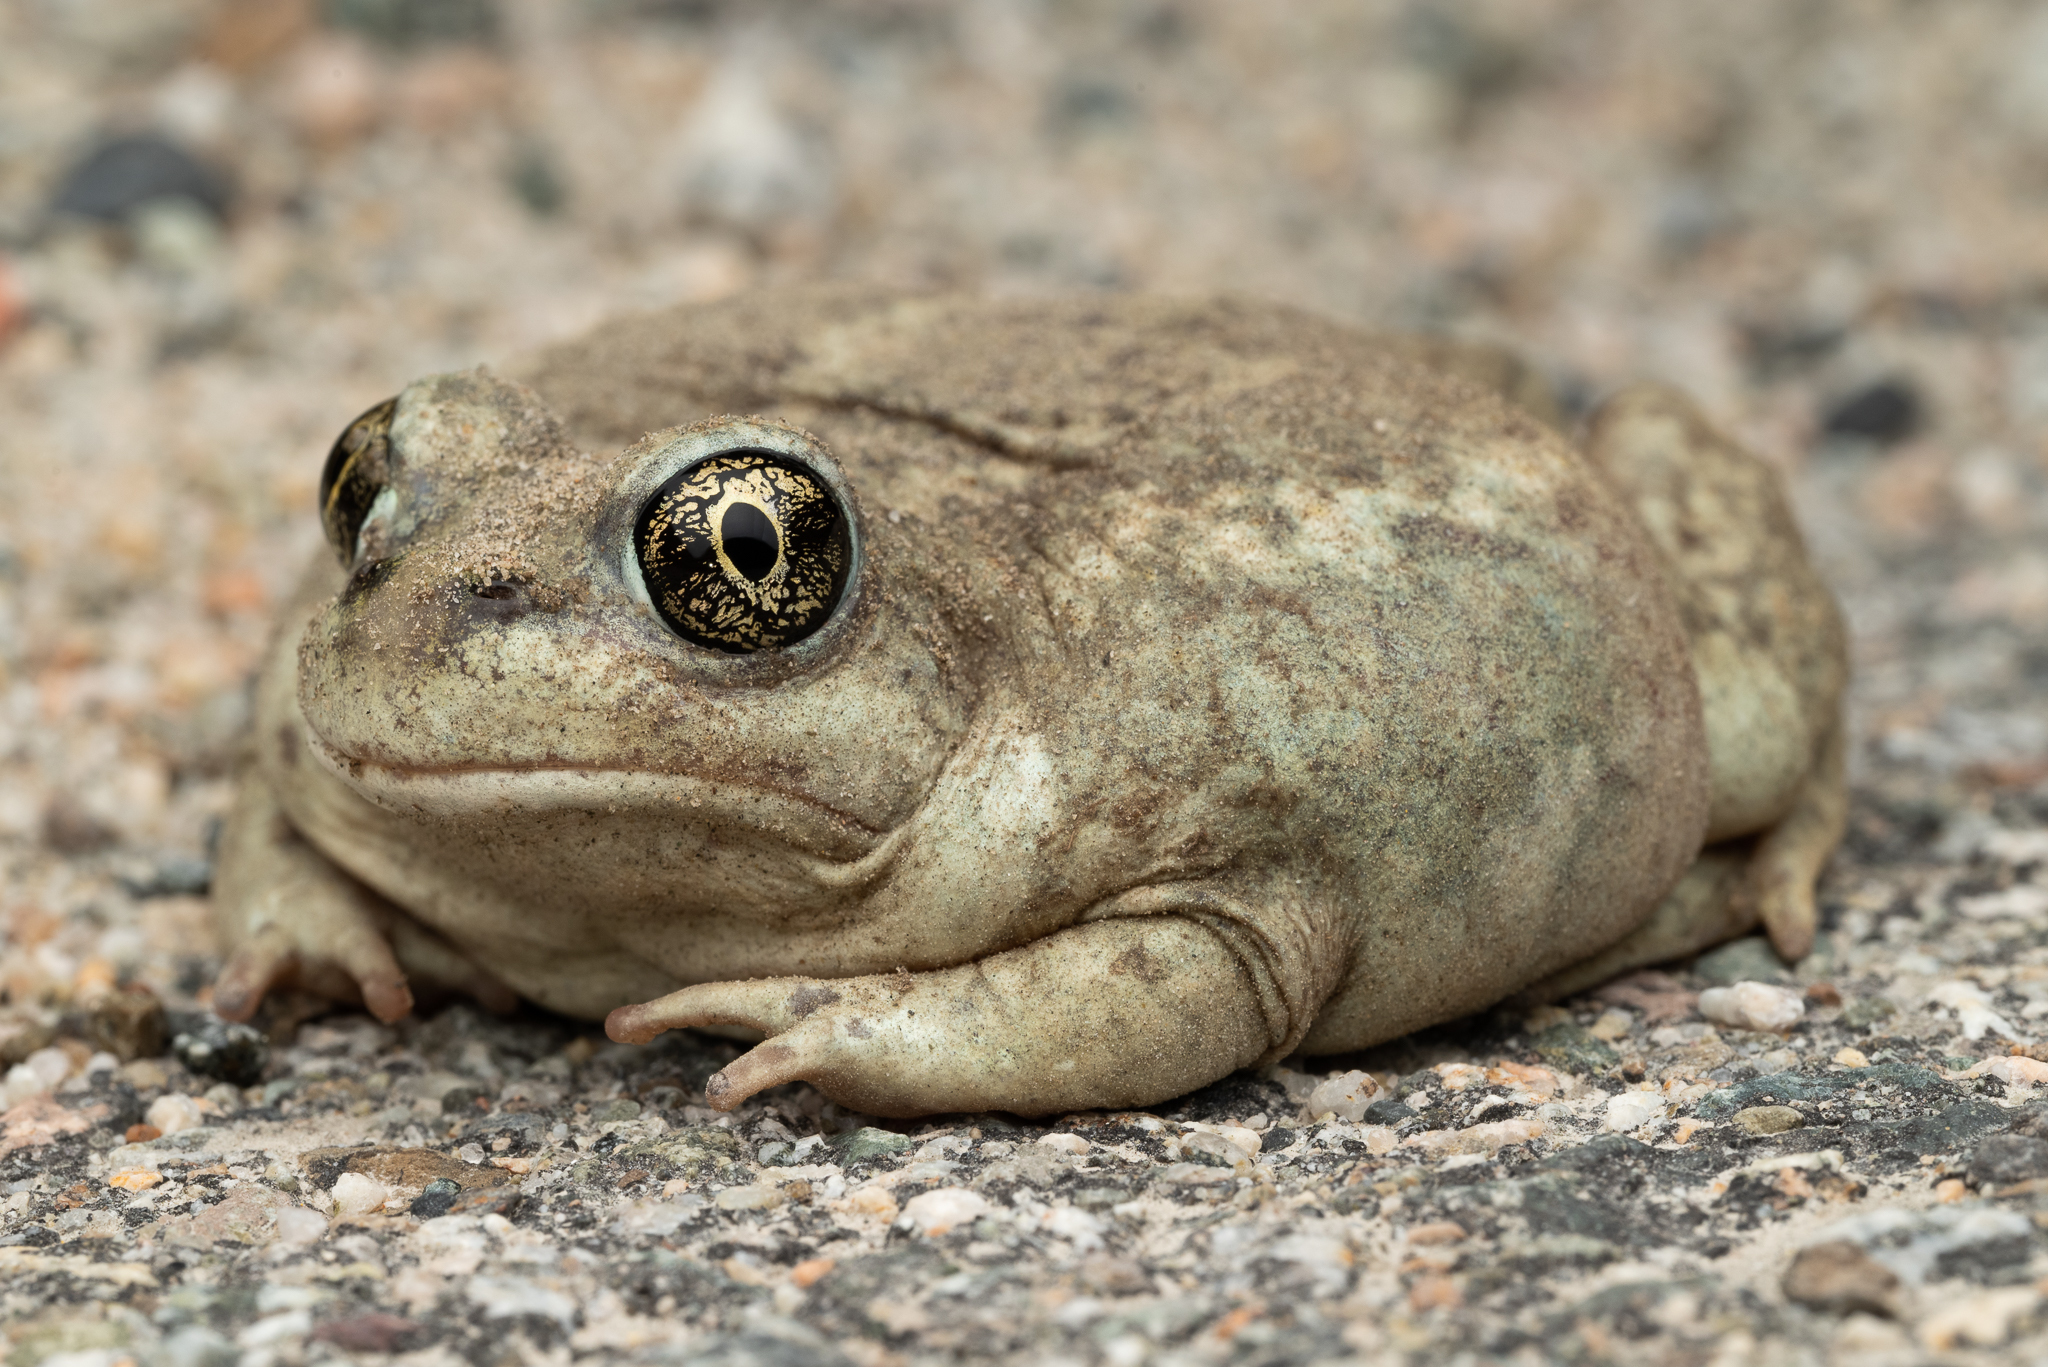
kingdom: Animalia
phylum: Chordata
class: Amphibia
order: Anura
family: Scaphiopodidae
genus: Spea
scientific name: Spea intermontana
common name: Great basin spadefoot
